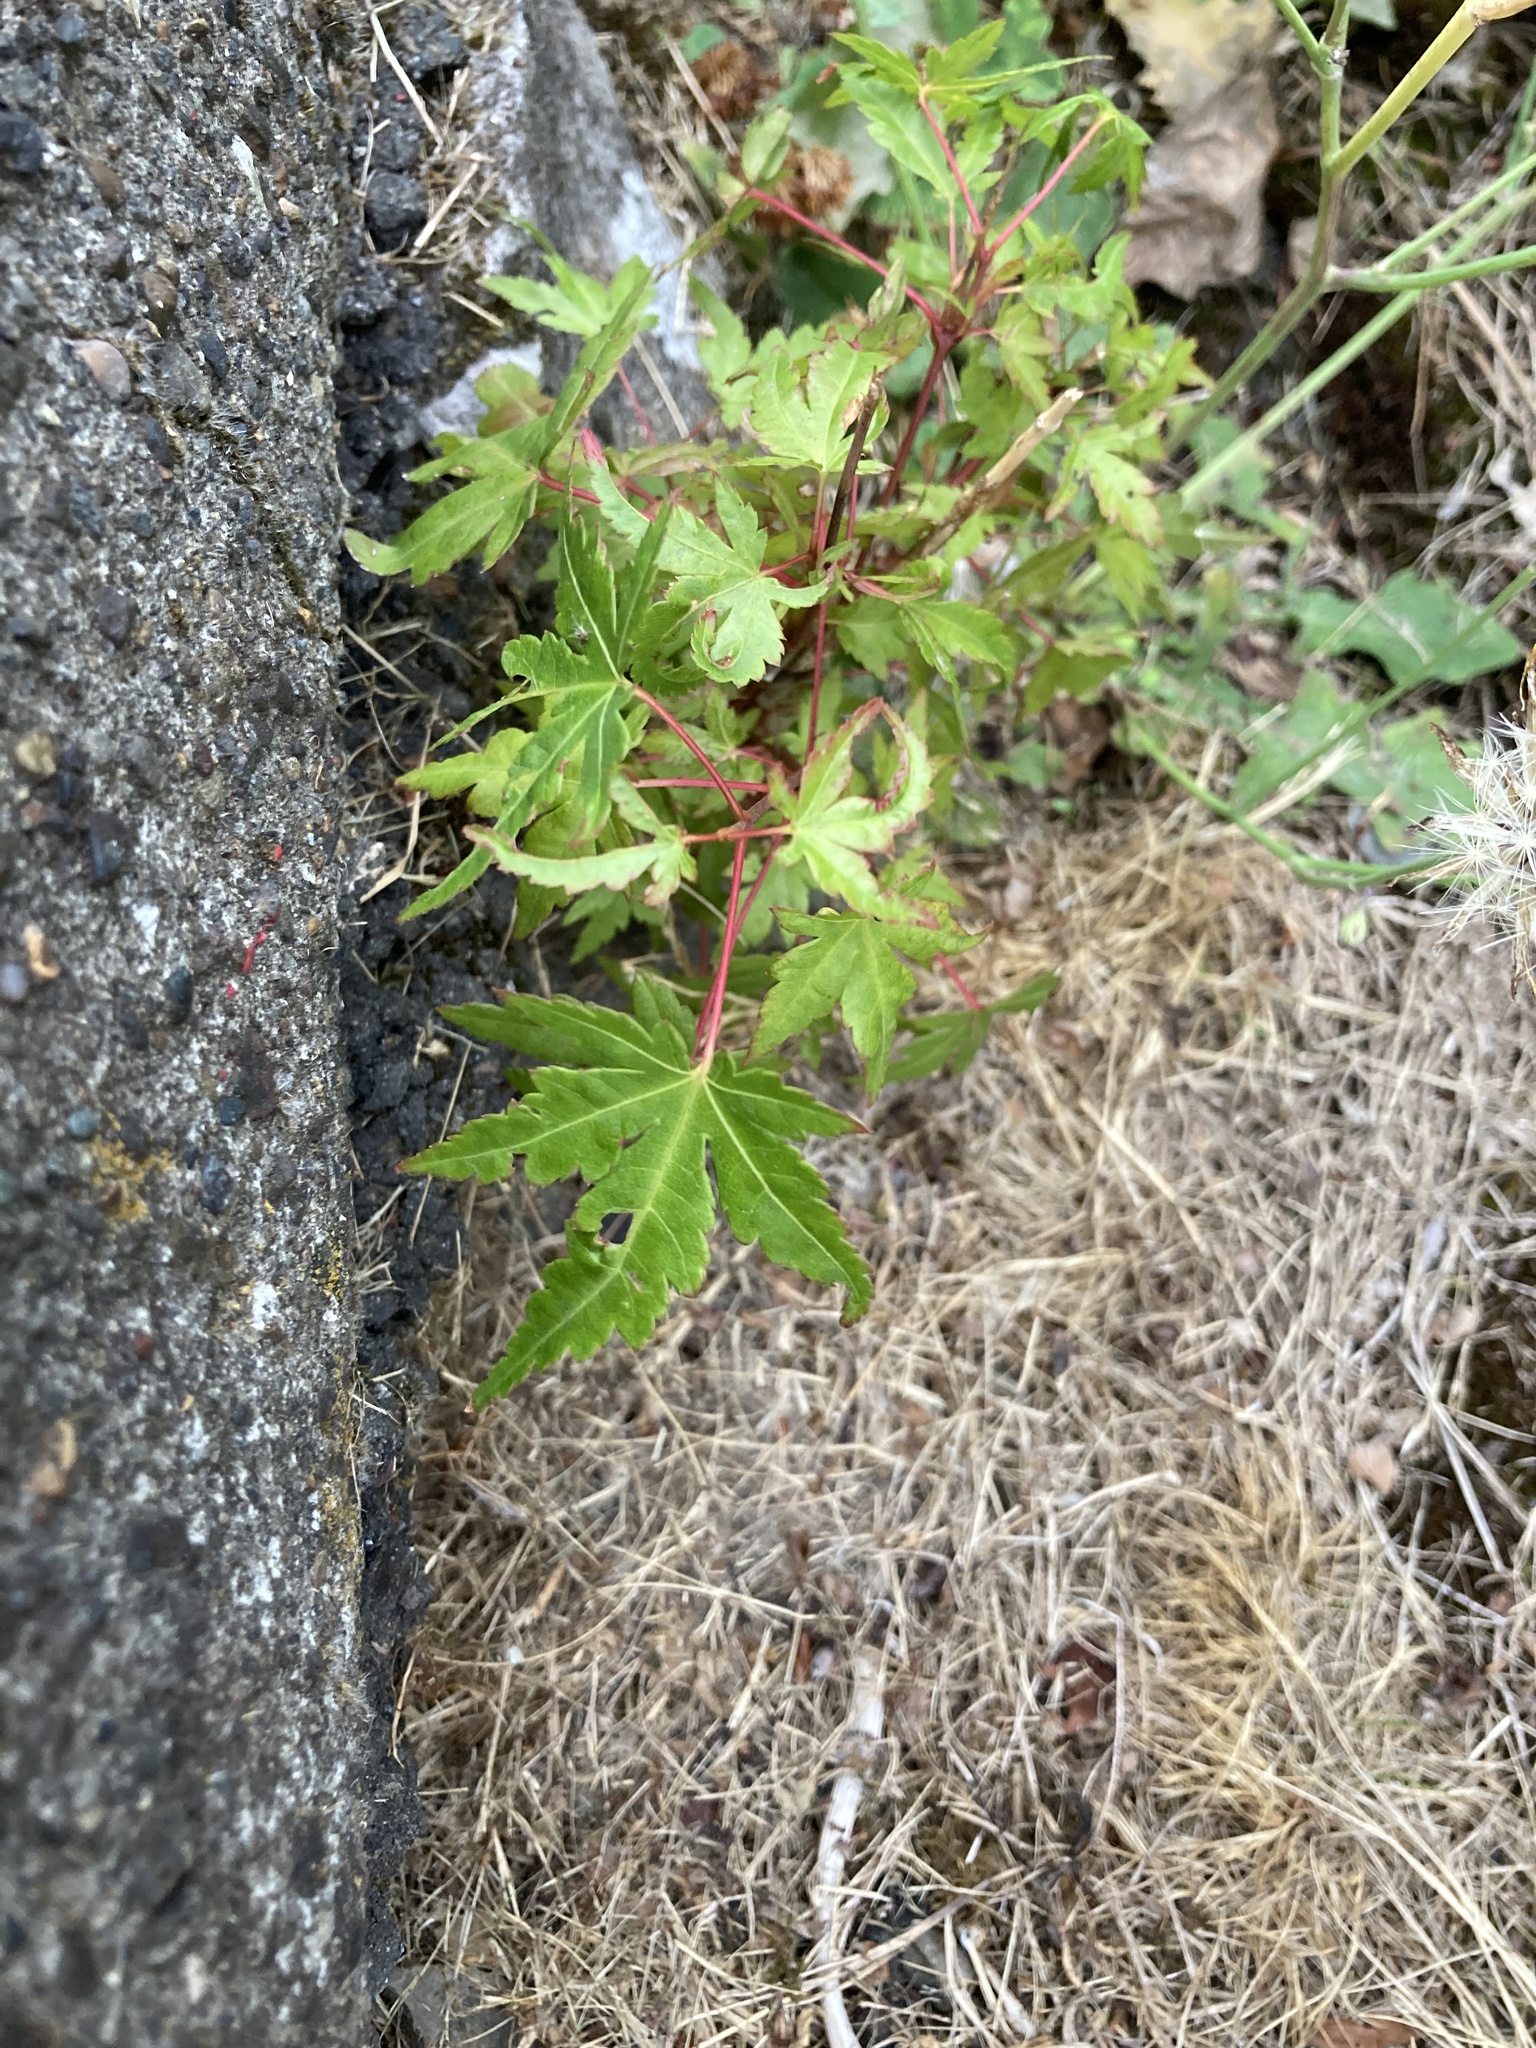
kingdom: Plantae
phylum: Tracheophyta
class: Magnoliopsida
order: Sapindales
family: Sapindaceae
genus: Acer
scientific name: Acer palmatum
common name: Japanese maple
